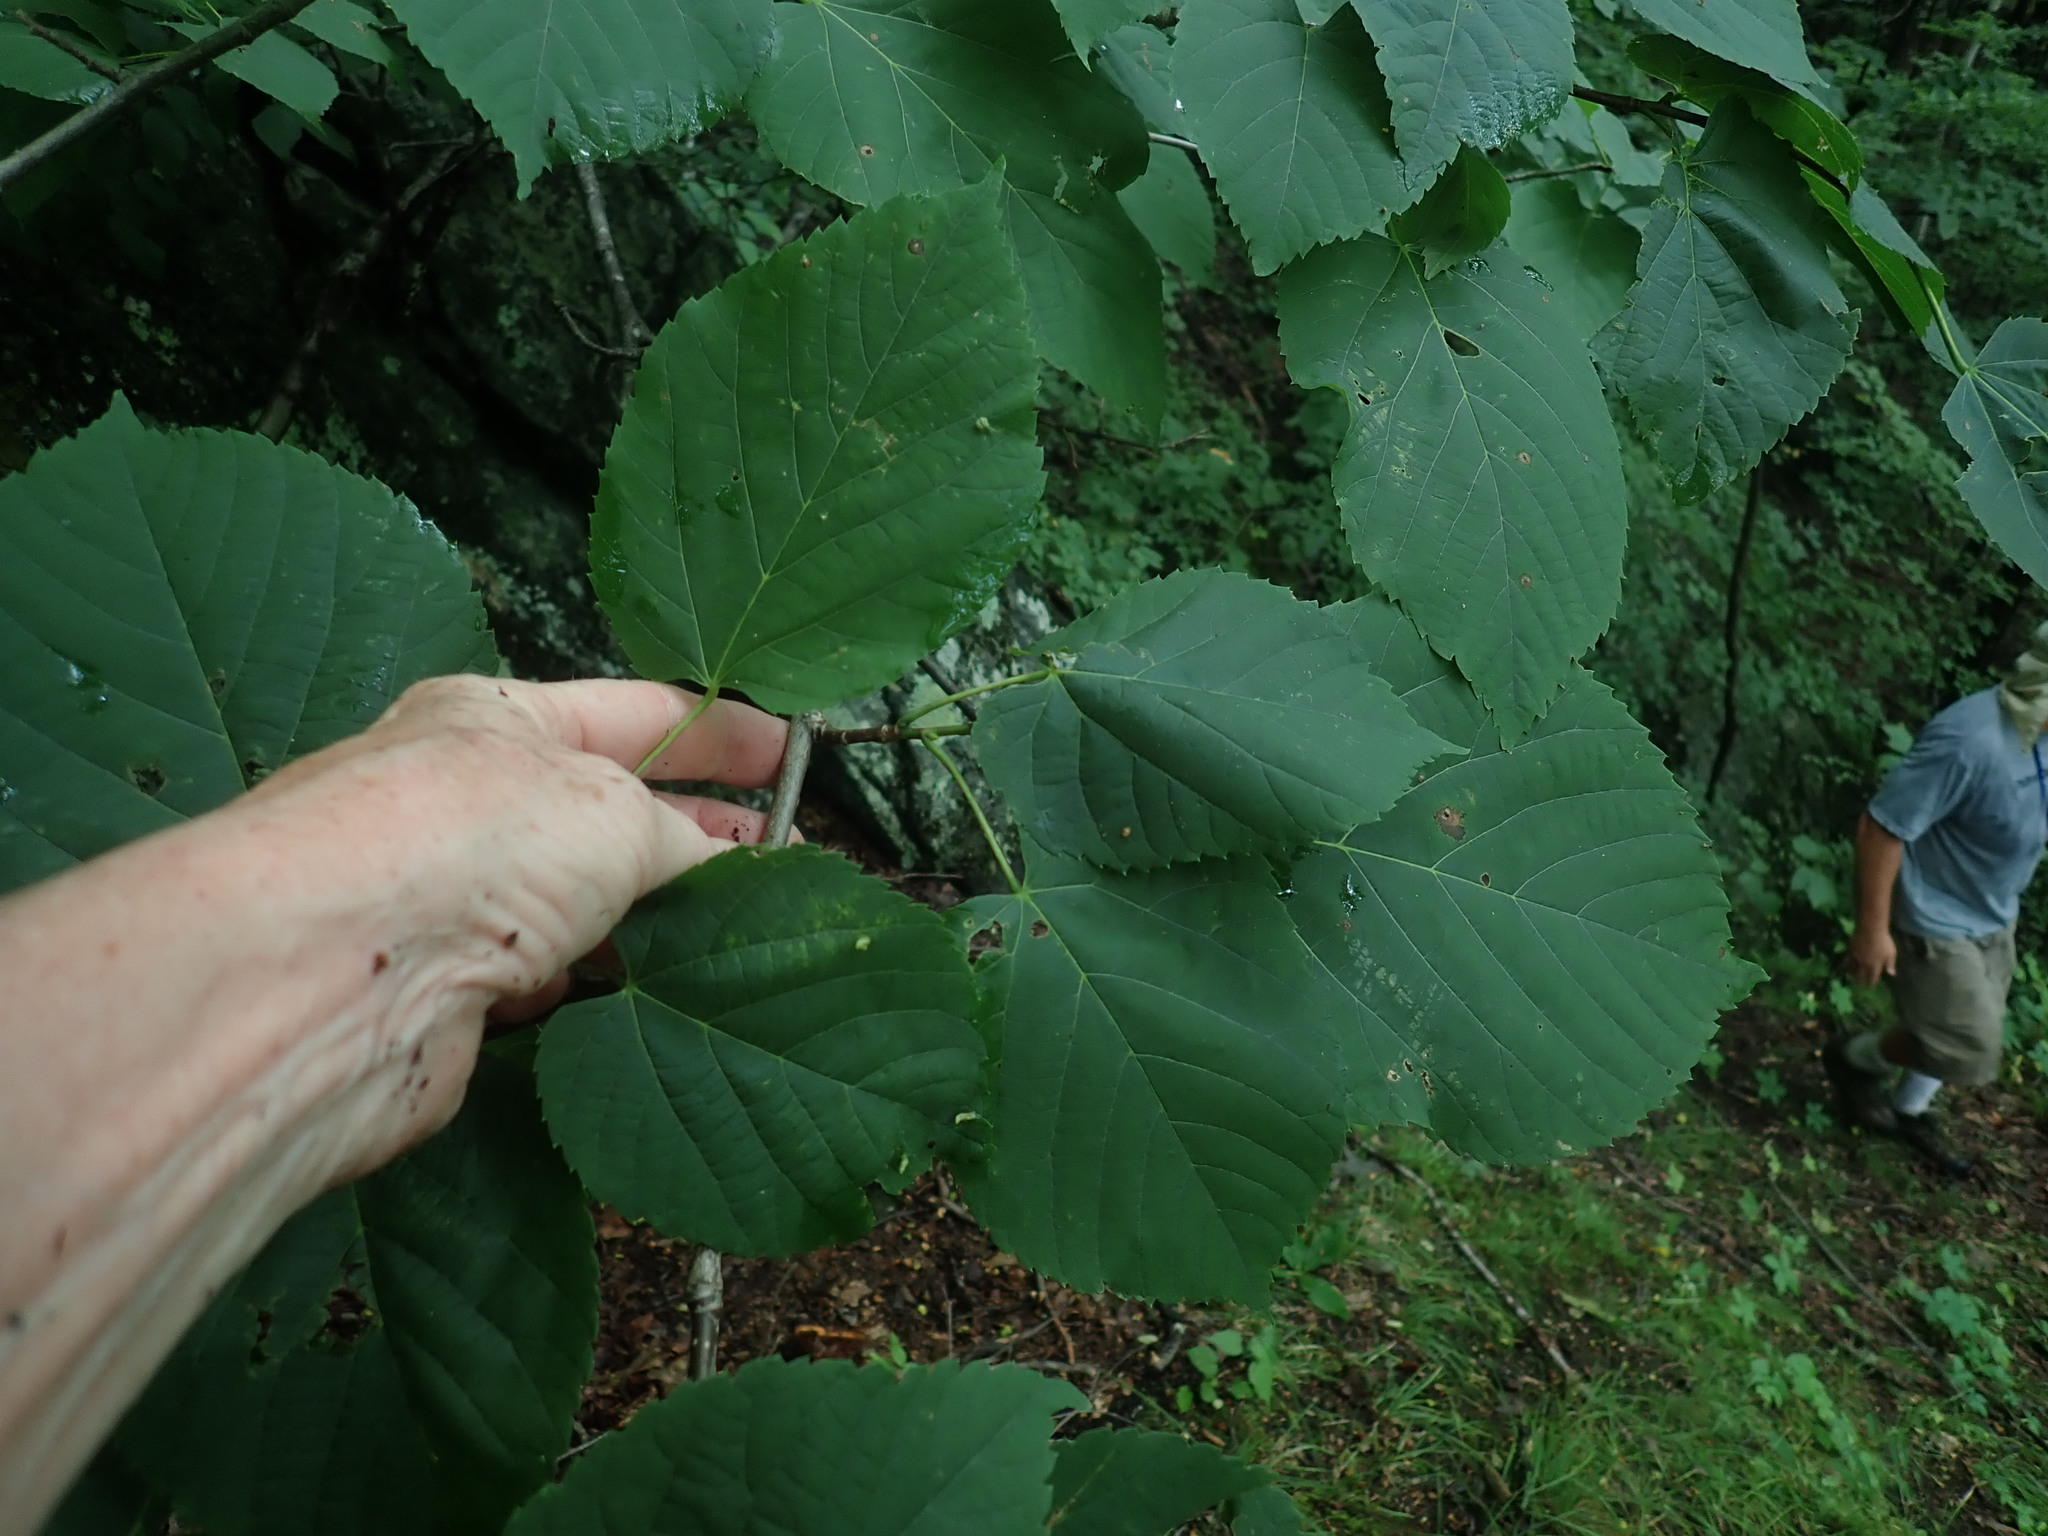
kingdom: Plantae
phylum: Tracheophyta
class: Magnoliopsida
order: Malvales
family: Malvaceae
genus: Tilia
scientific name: Tilia americana
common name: Basswood
